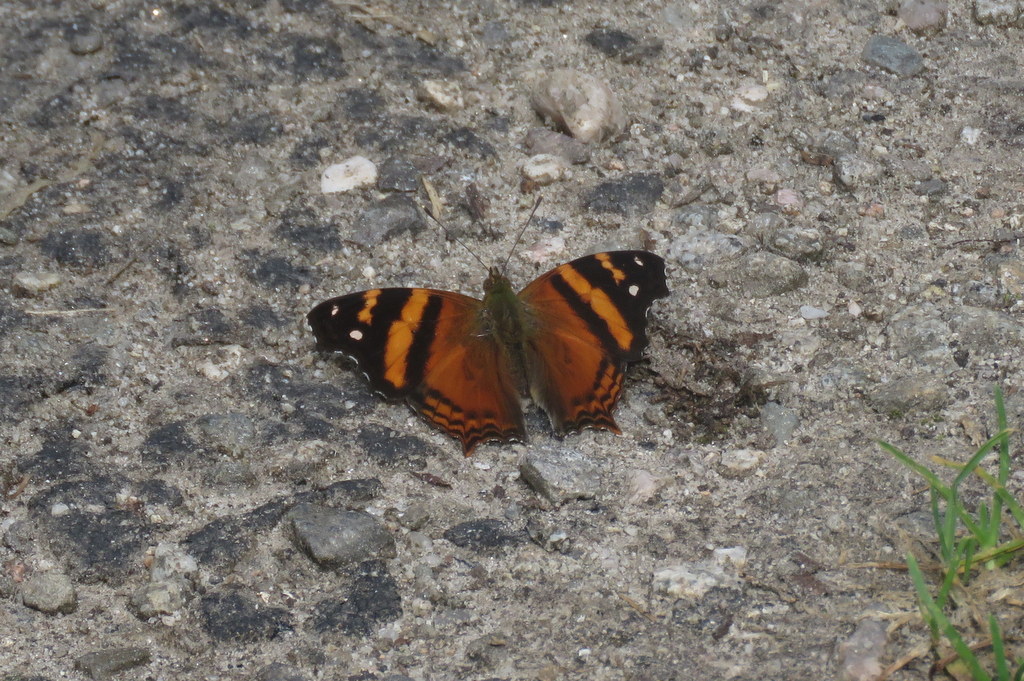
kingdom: Animalia
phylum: Arthropoda
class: Insecta
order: Lepidoptera
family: Nymphalidae
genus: Hypanartia
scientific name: Hypanartia bella
